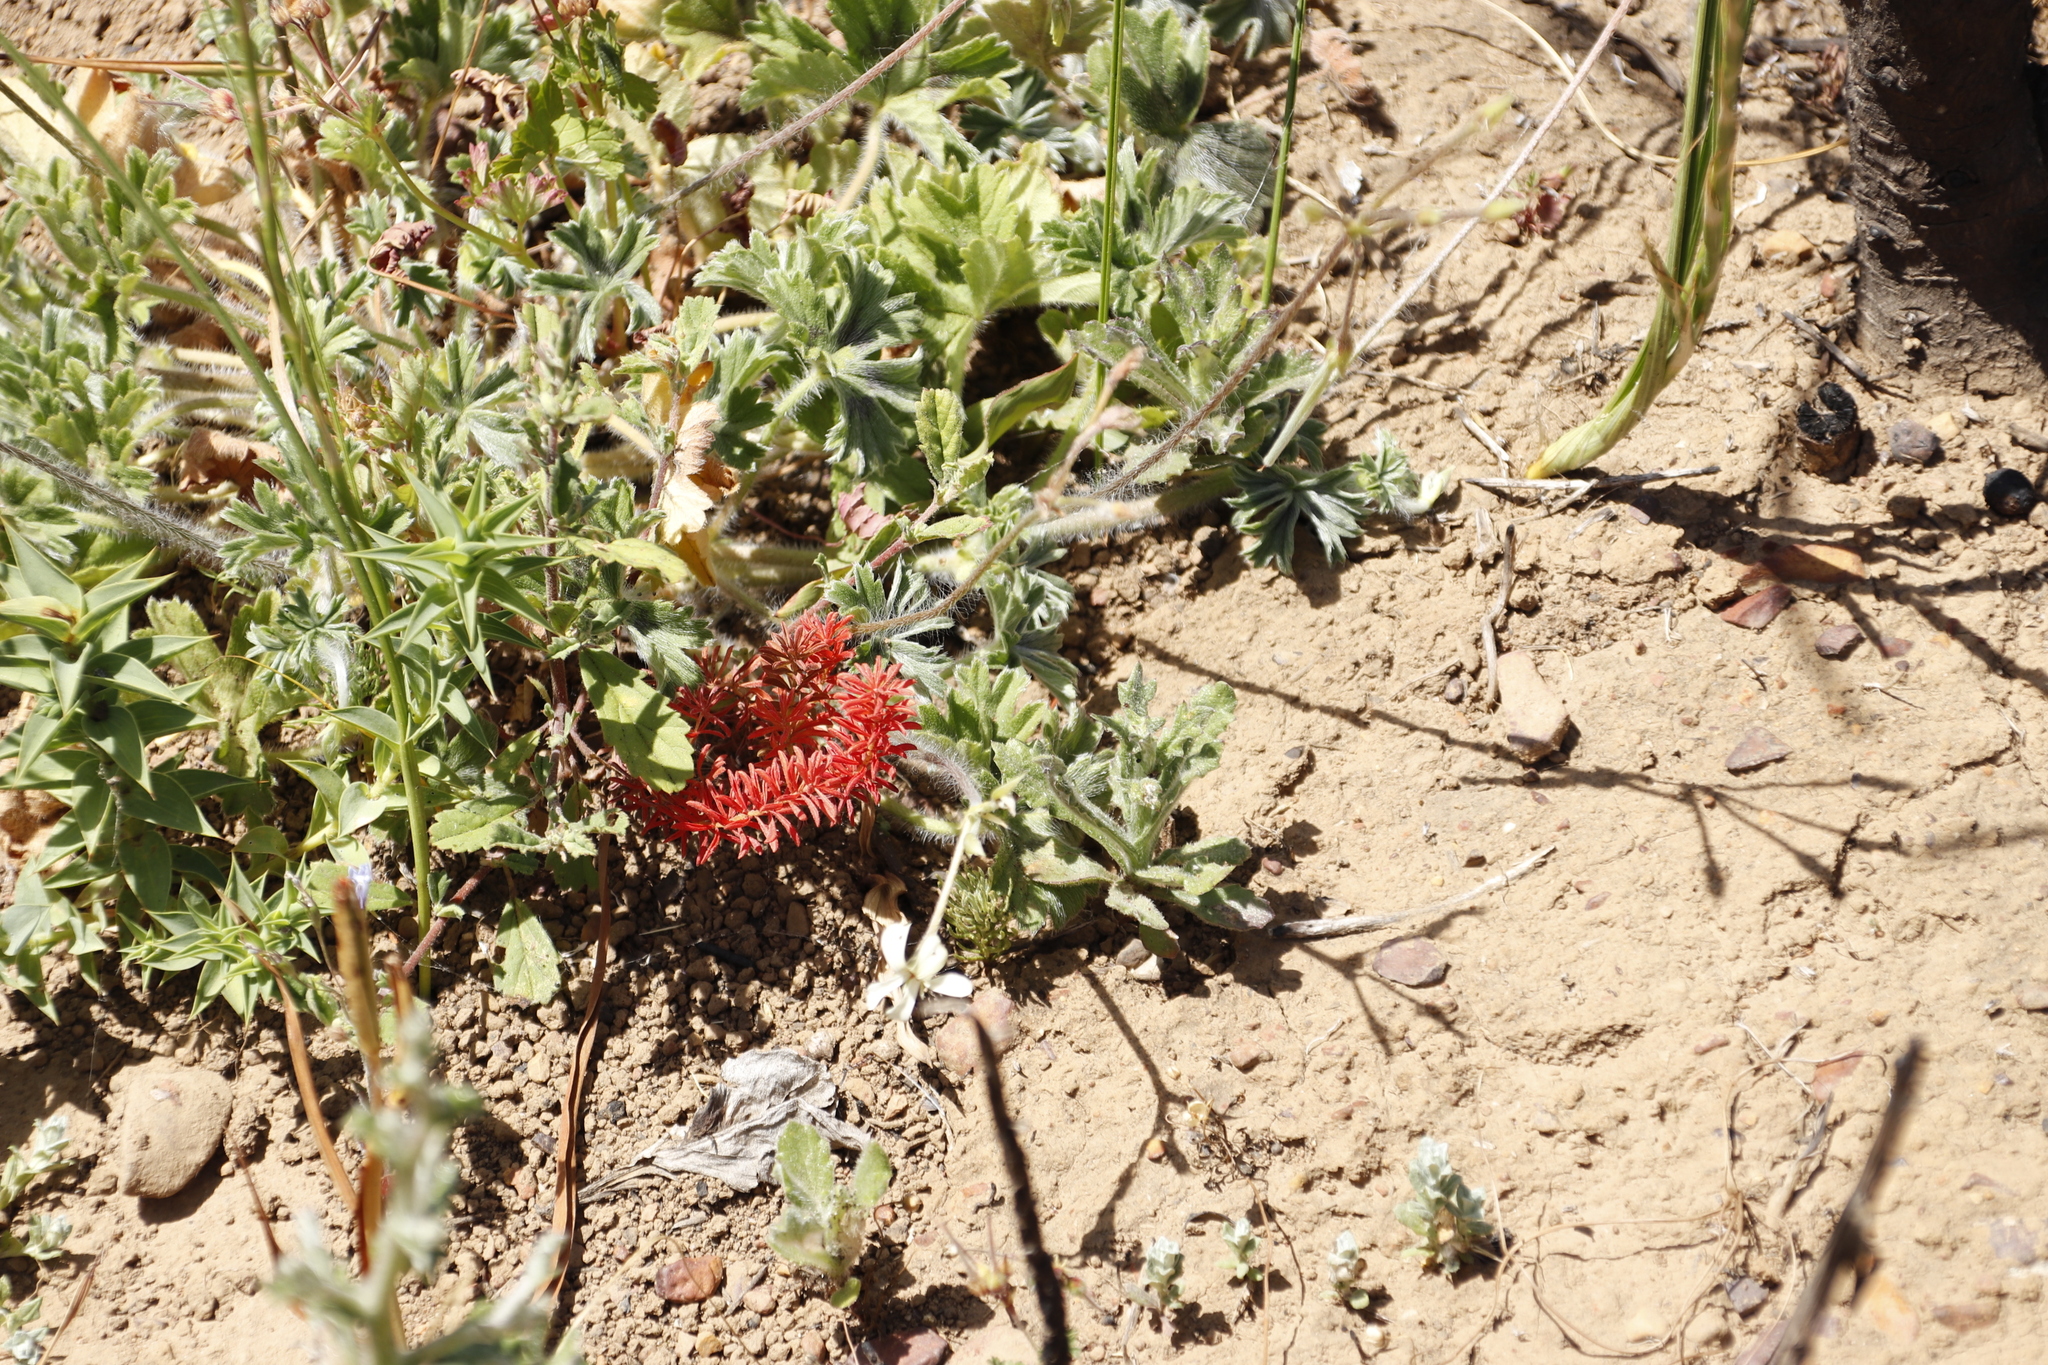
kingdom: Plantae
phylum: Tracheophyta
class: Magnoliopsida
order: Oxalidales
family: Oxalidaceae
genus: Oxalis
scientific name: Oxalis hirta
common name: Tropical woodsorrel
